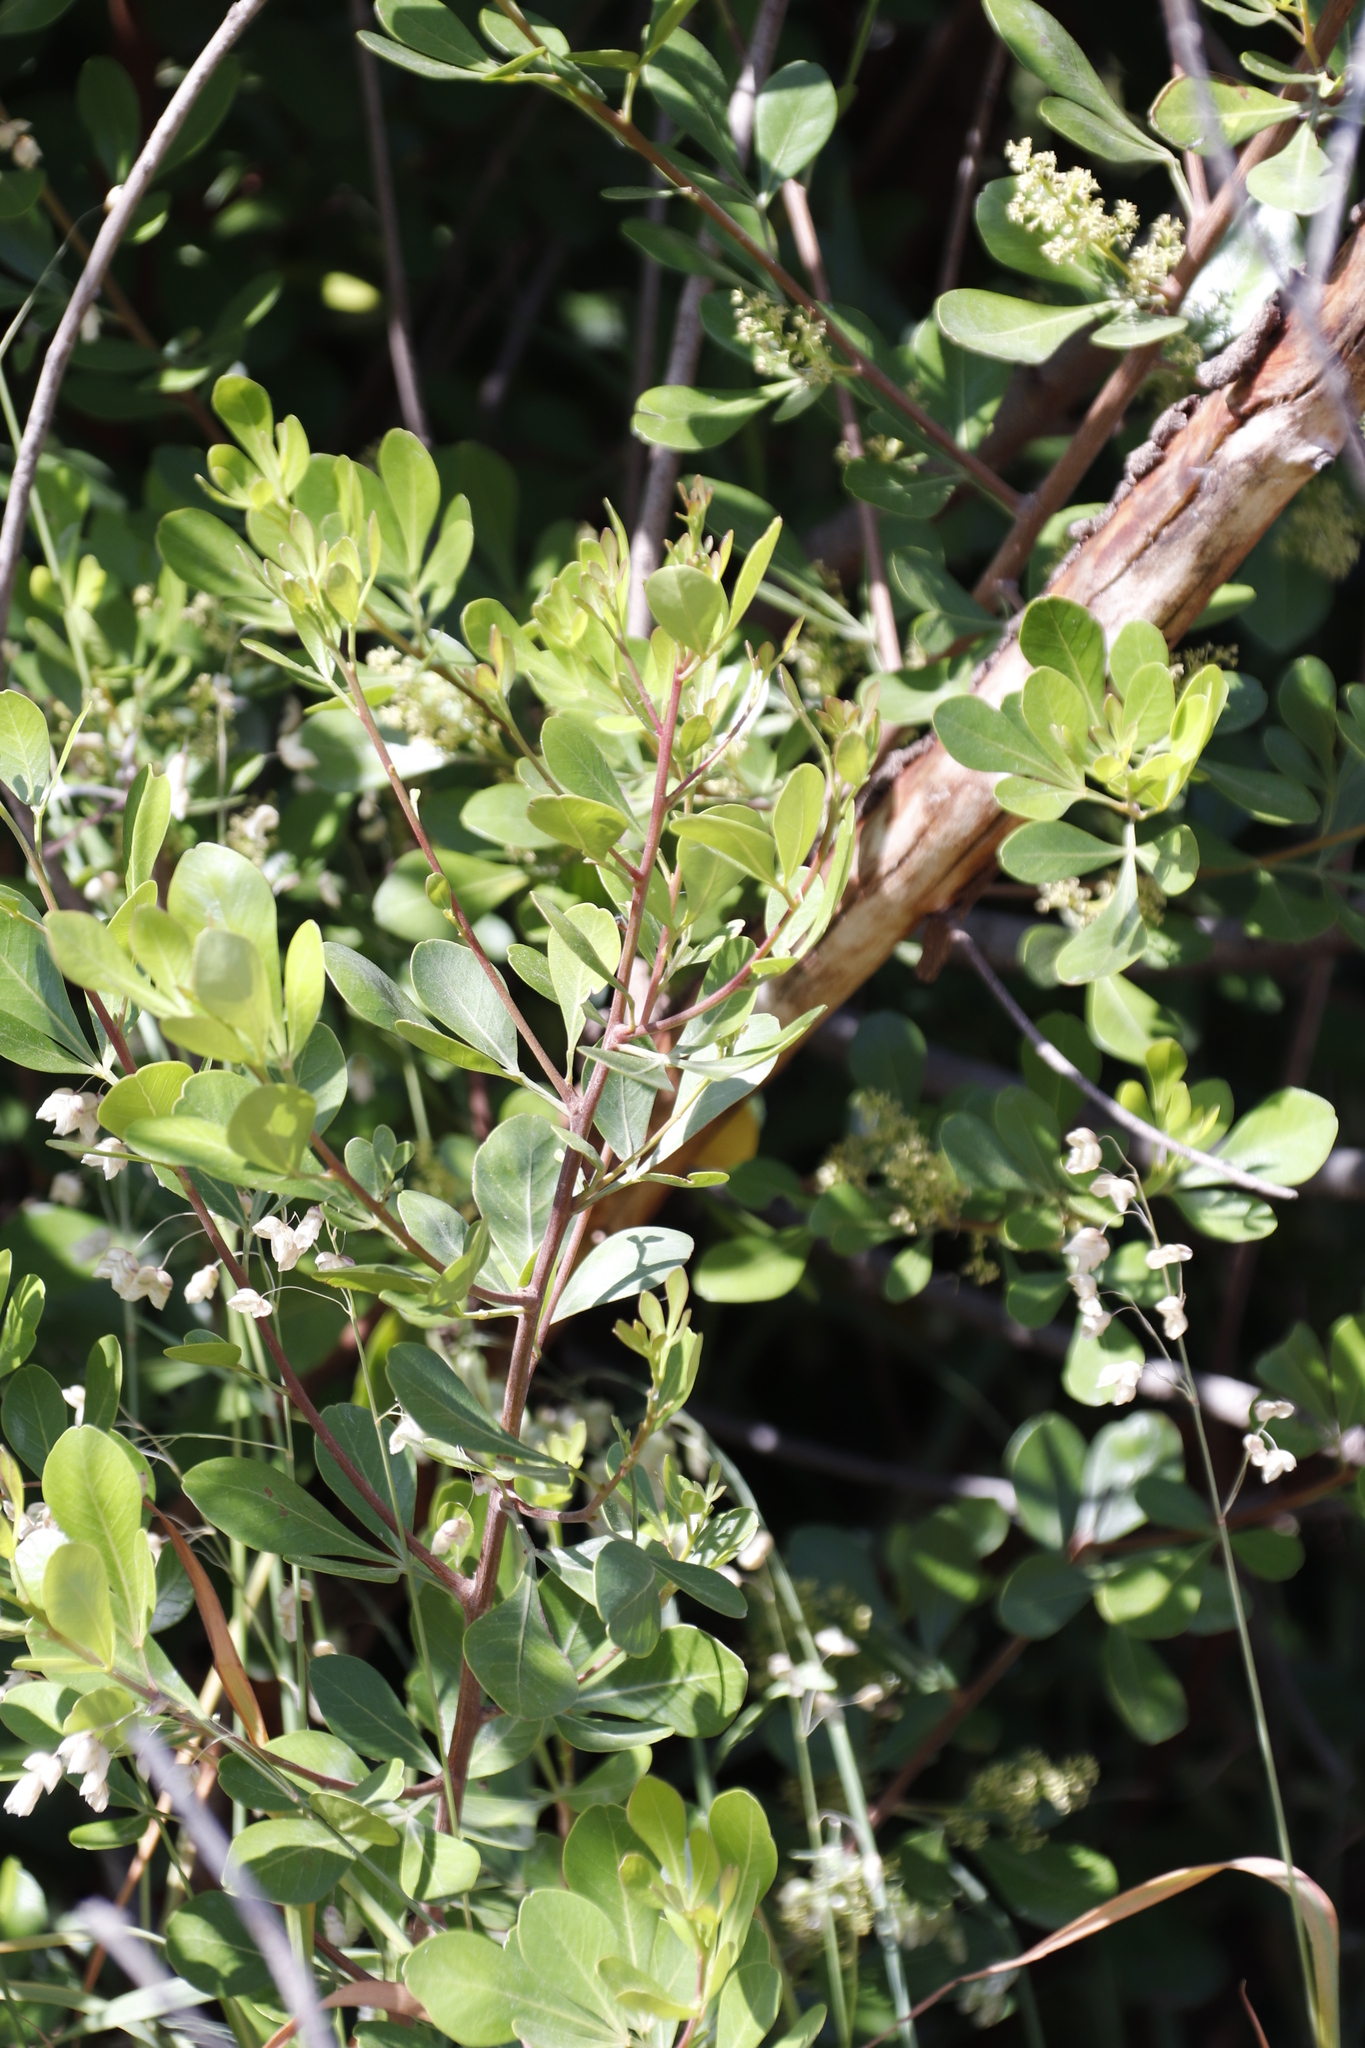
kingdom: Plantae
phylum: Tracheophyta
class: Magnoliopsida
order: Sapindales
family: Anacardiaceae
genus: Searsia
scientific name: Searsia lucida
